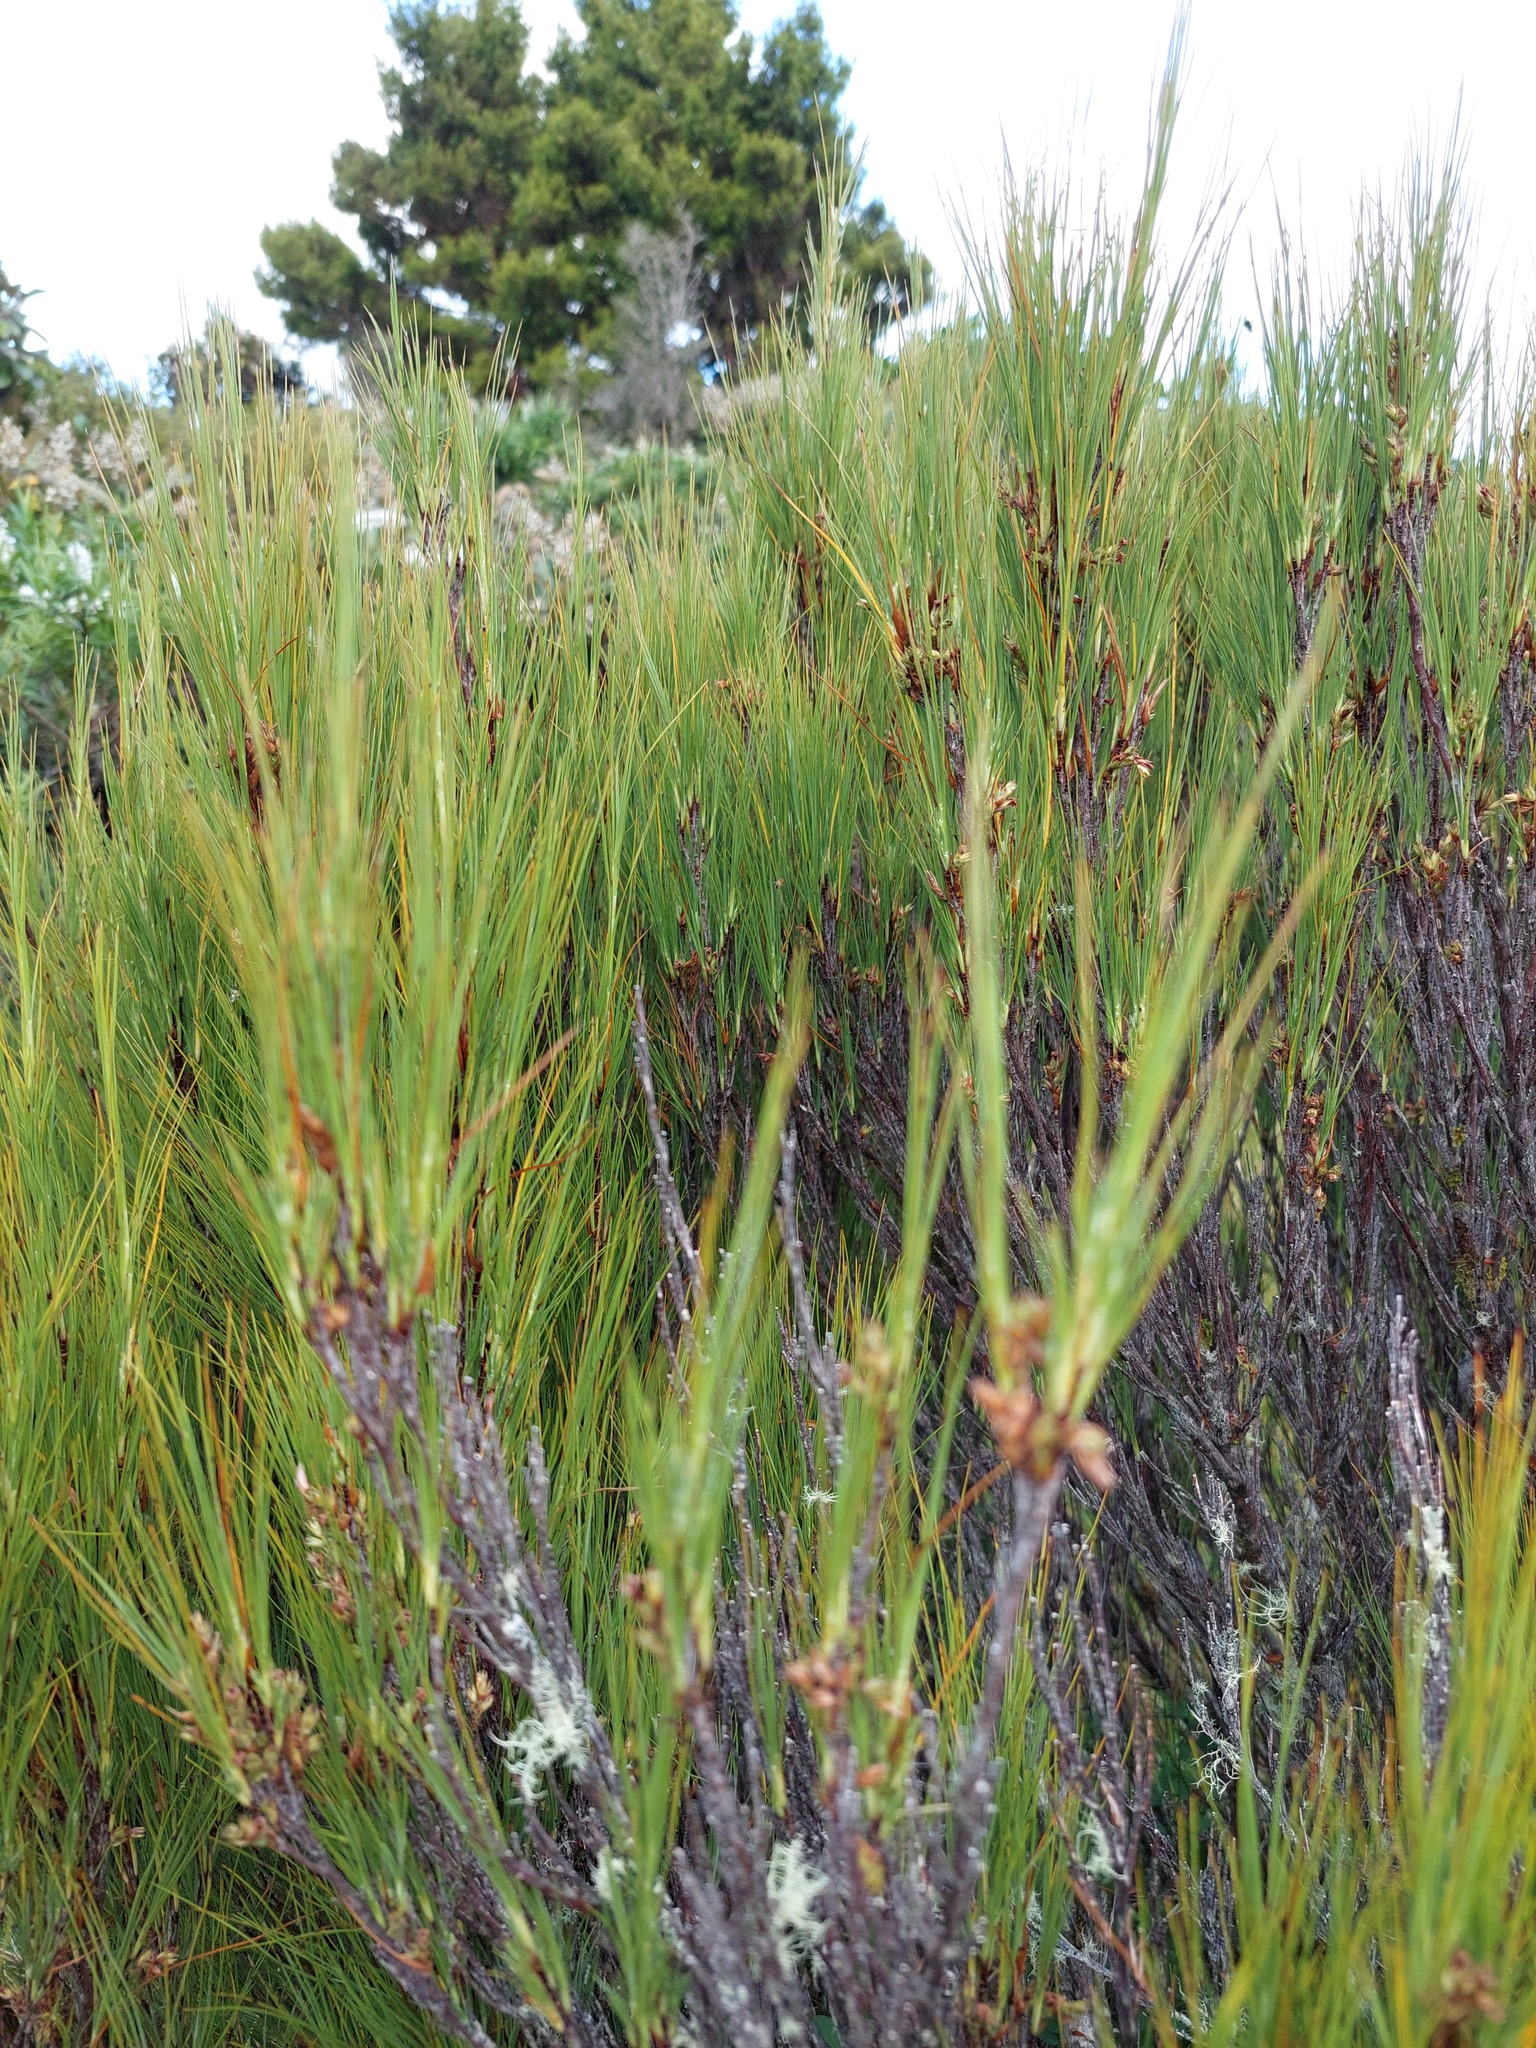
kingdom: Plantae
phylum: Tracheophyta
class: Magnoliopsida
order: Ericales
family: Ericaceae
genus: Dracophyllum
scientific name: Dracophyllum filifolium
